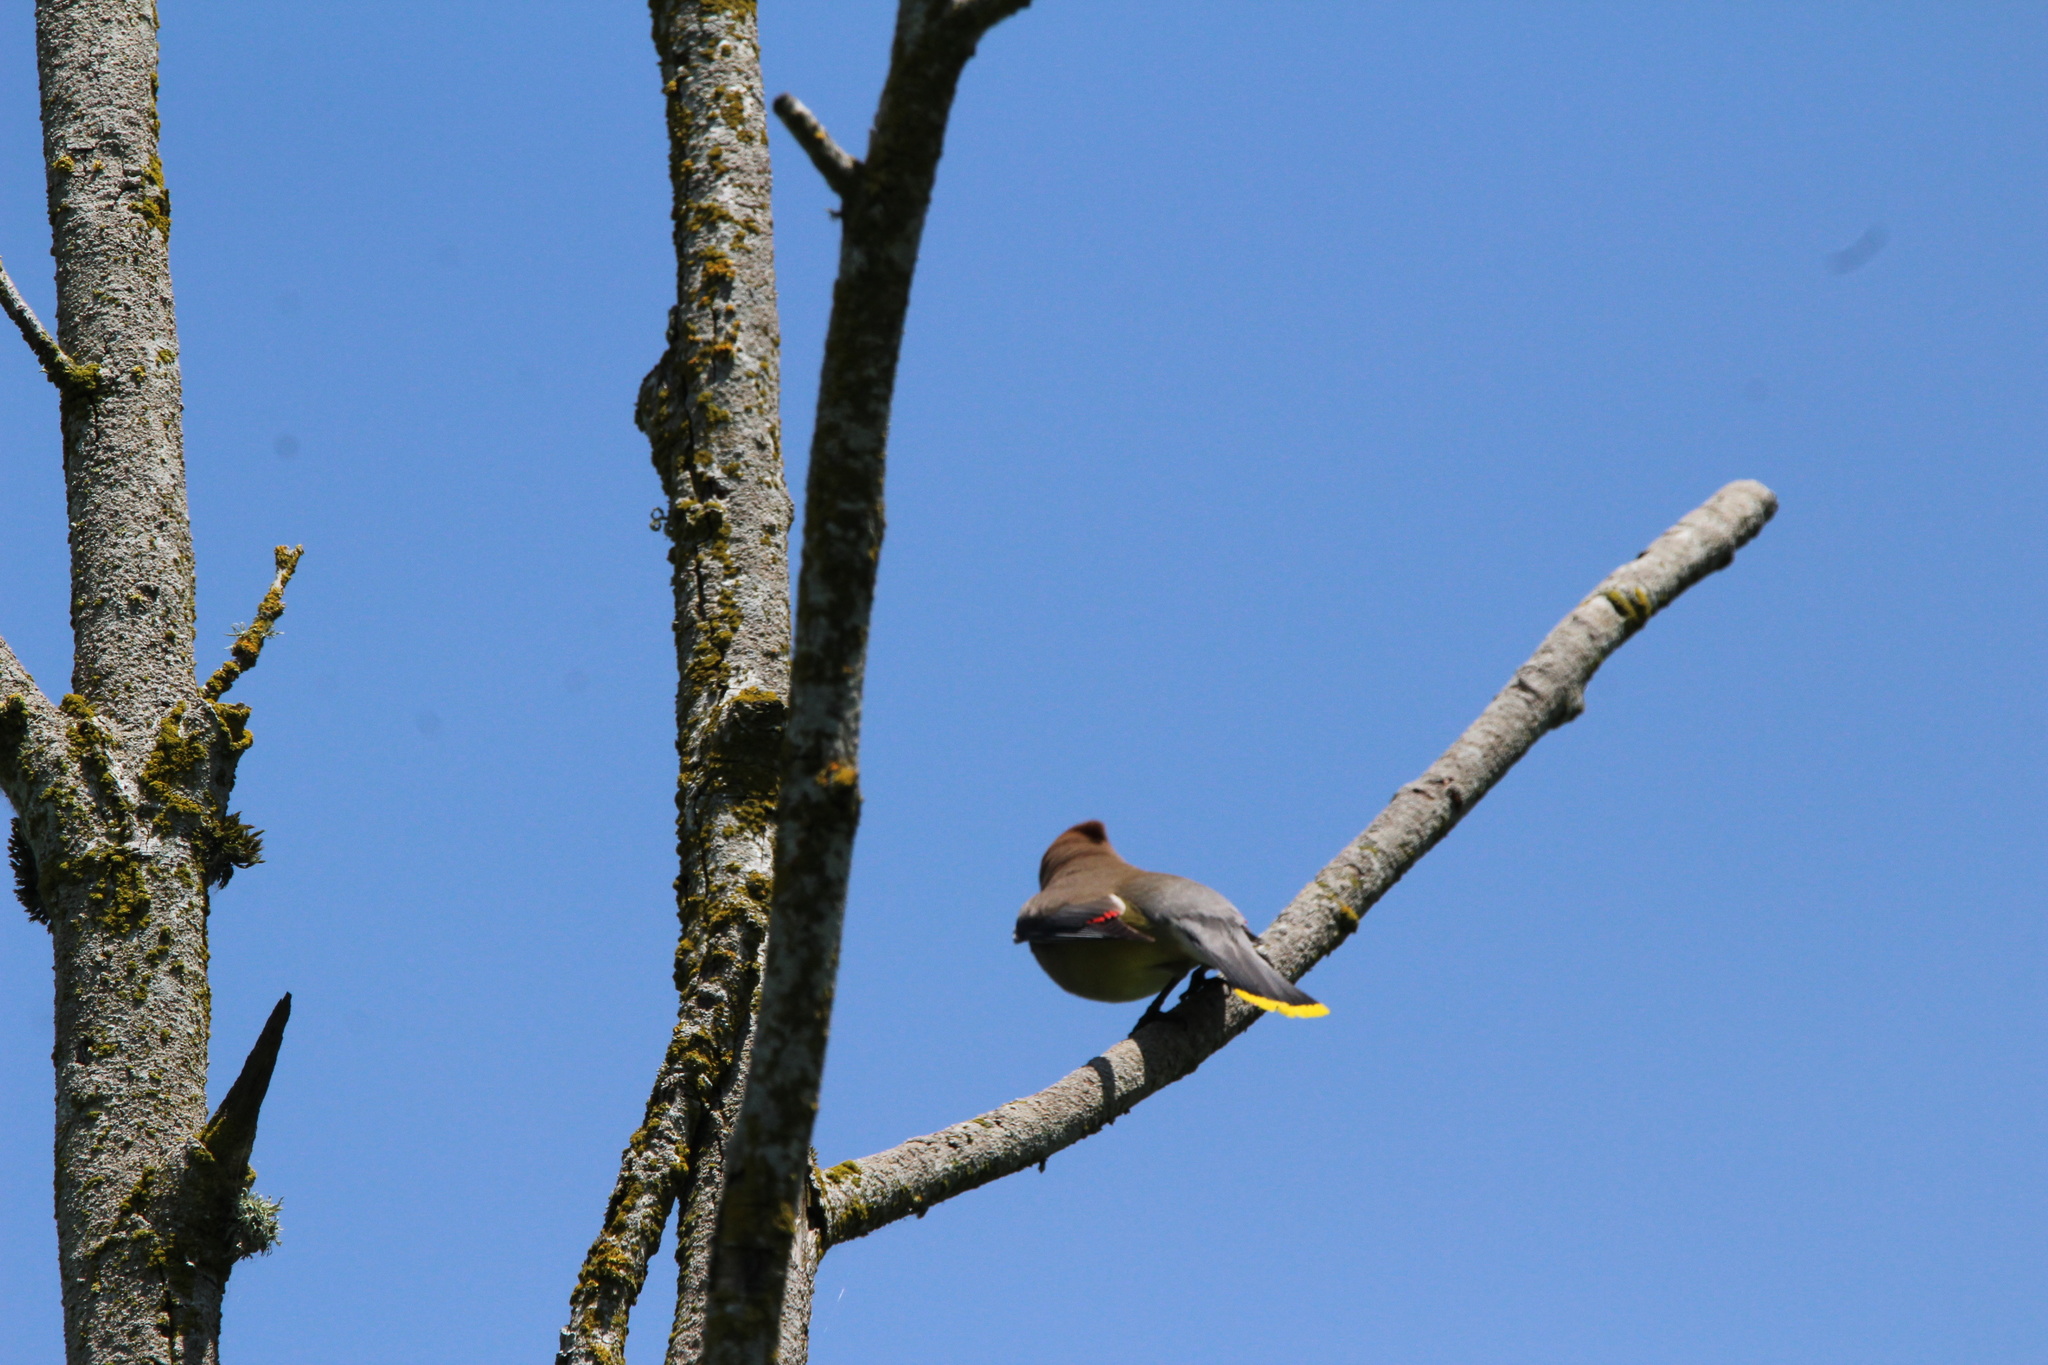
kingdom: Animalia
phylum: Chordata
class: Aves
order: Passeriformes
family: Bombycillidae
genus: Bombycilla
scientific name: Bombycilla cedrorum
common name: Cedar waxwing
